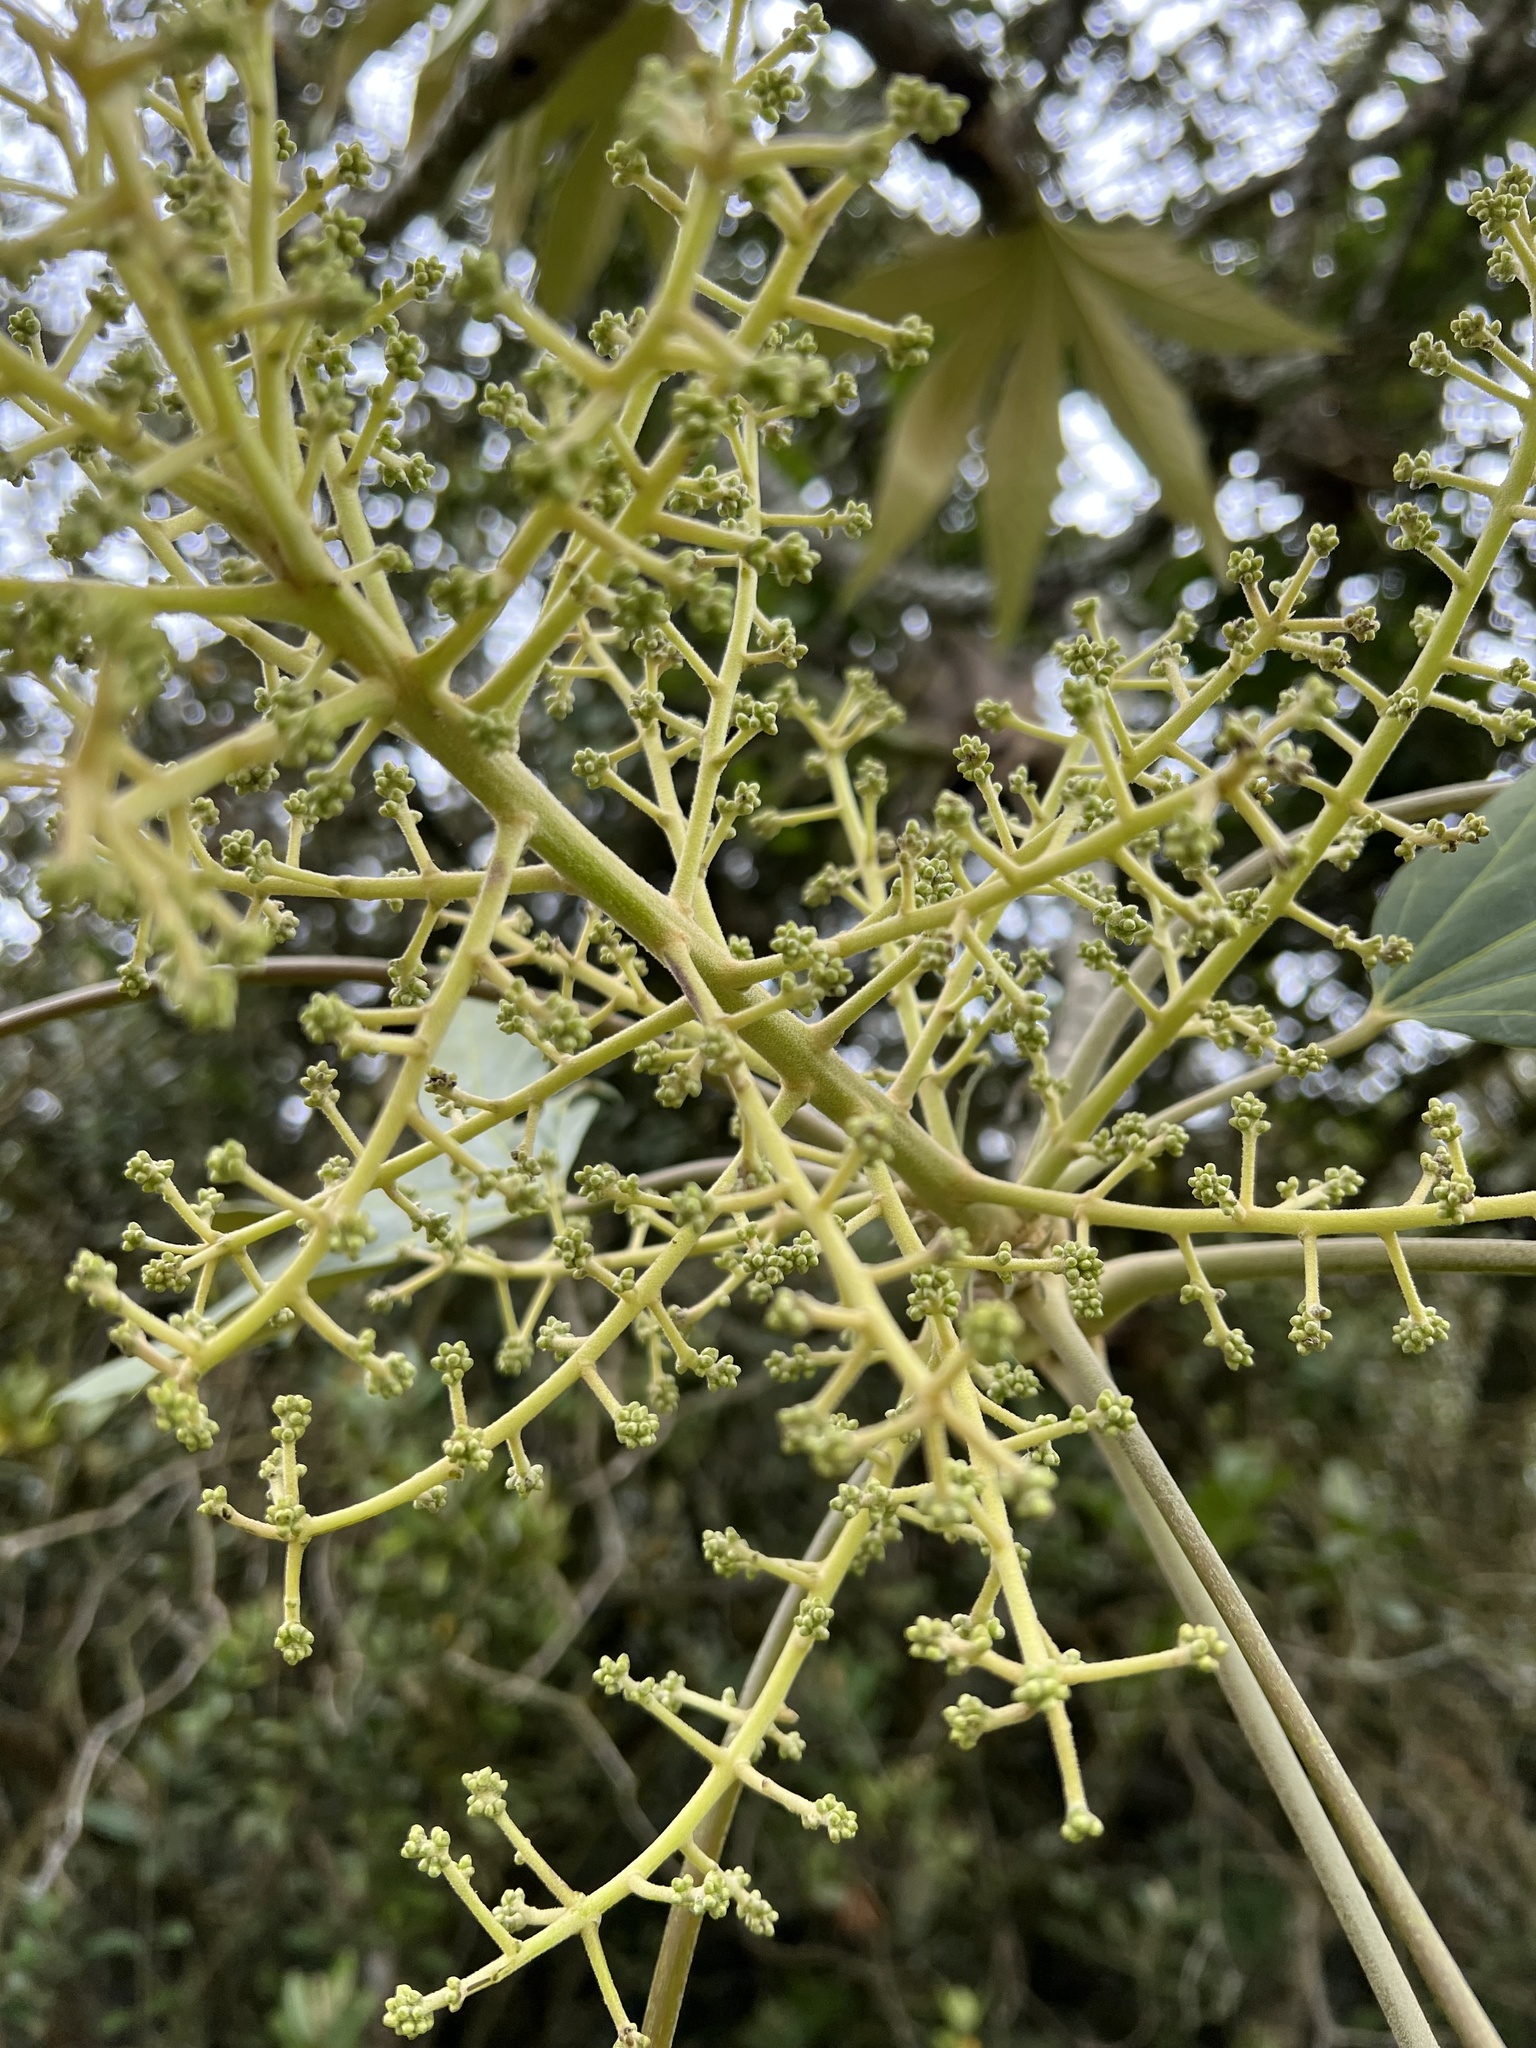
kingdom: Plantae
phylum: Tracheophyta
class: Magnoliopsida
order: Apiales
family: Araliaceae
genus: Oreopanax
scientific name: Oreopanax incisus
